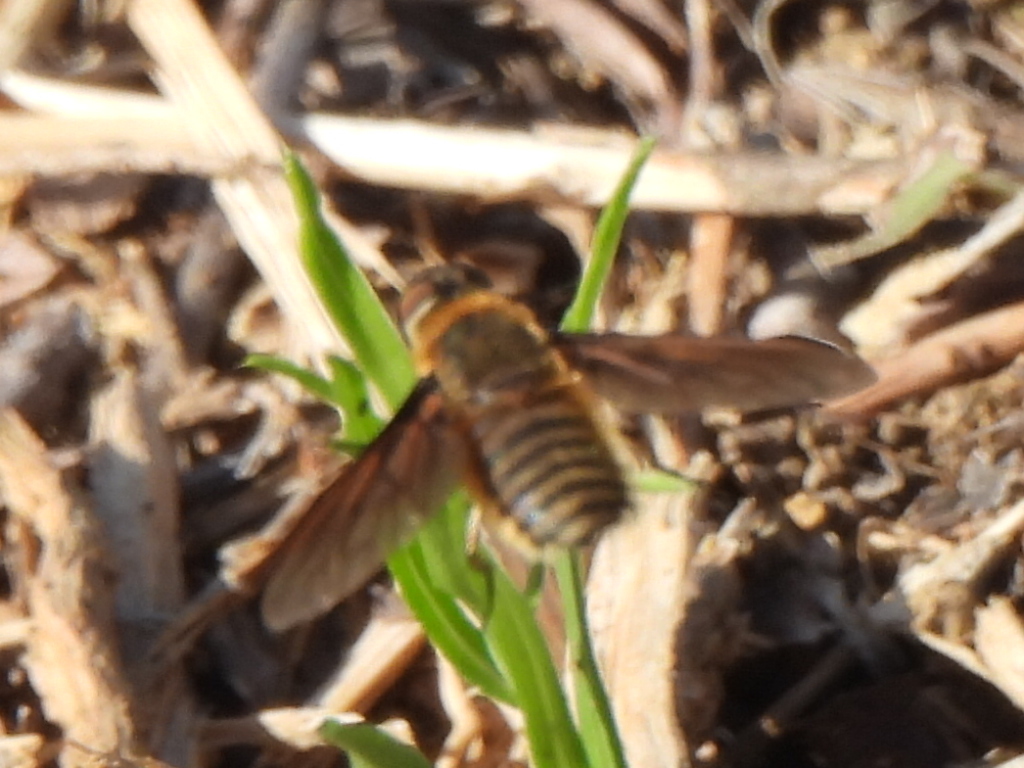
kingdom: Animalia
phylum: Arthropoda
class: Insecta
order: Diptera
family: Bombyliidae
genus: Poecilanthrax
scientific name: Poecilanthrax lucifer
